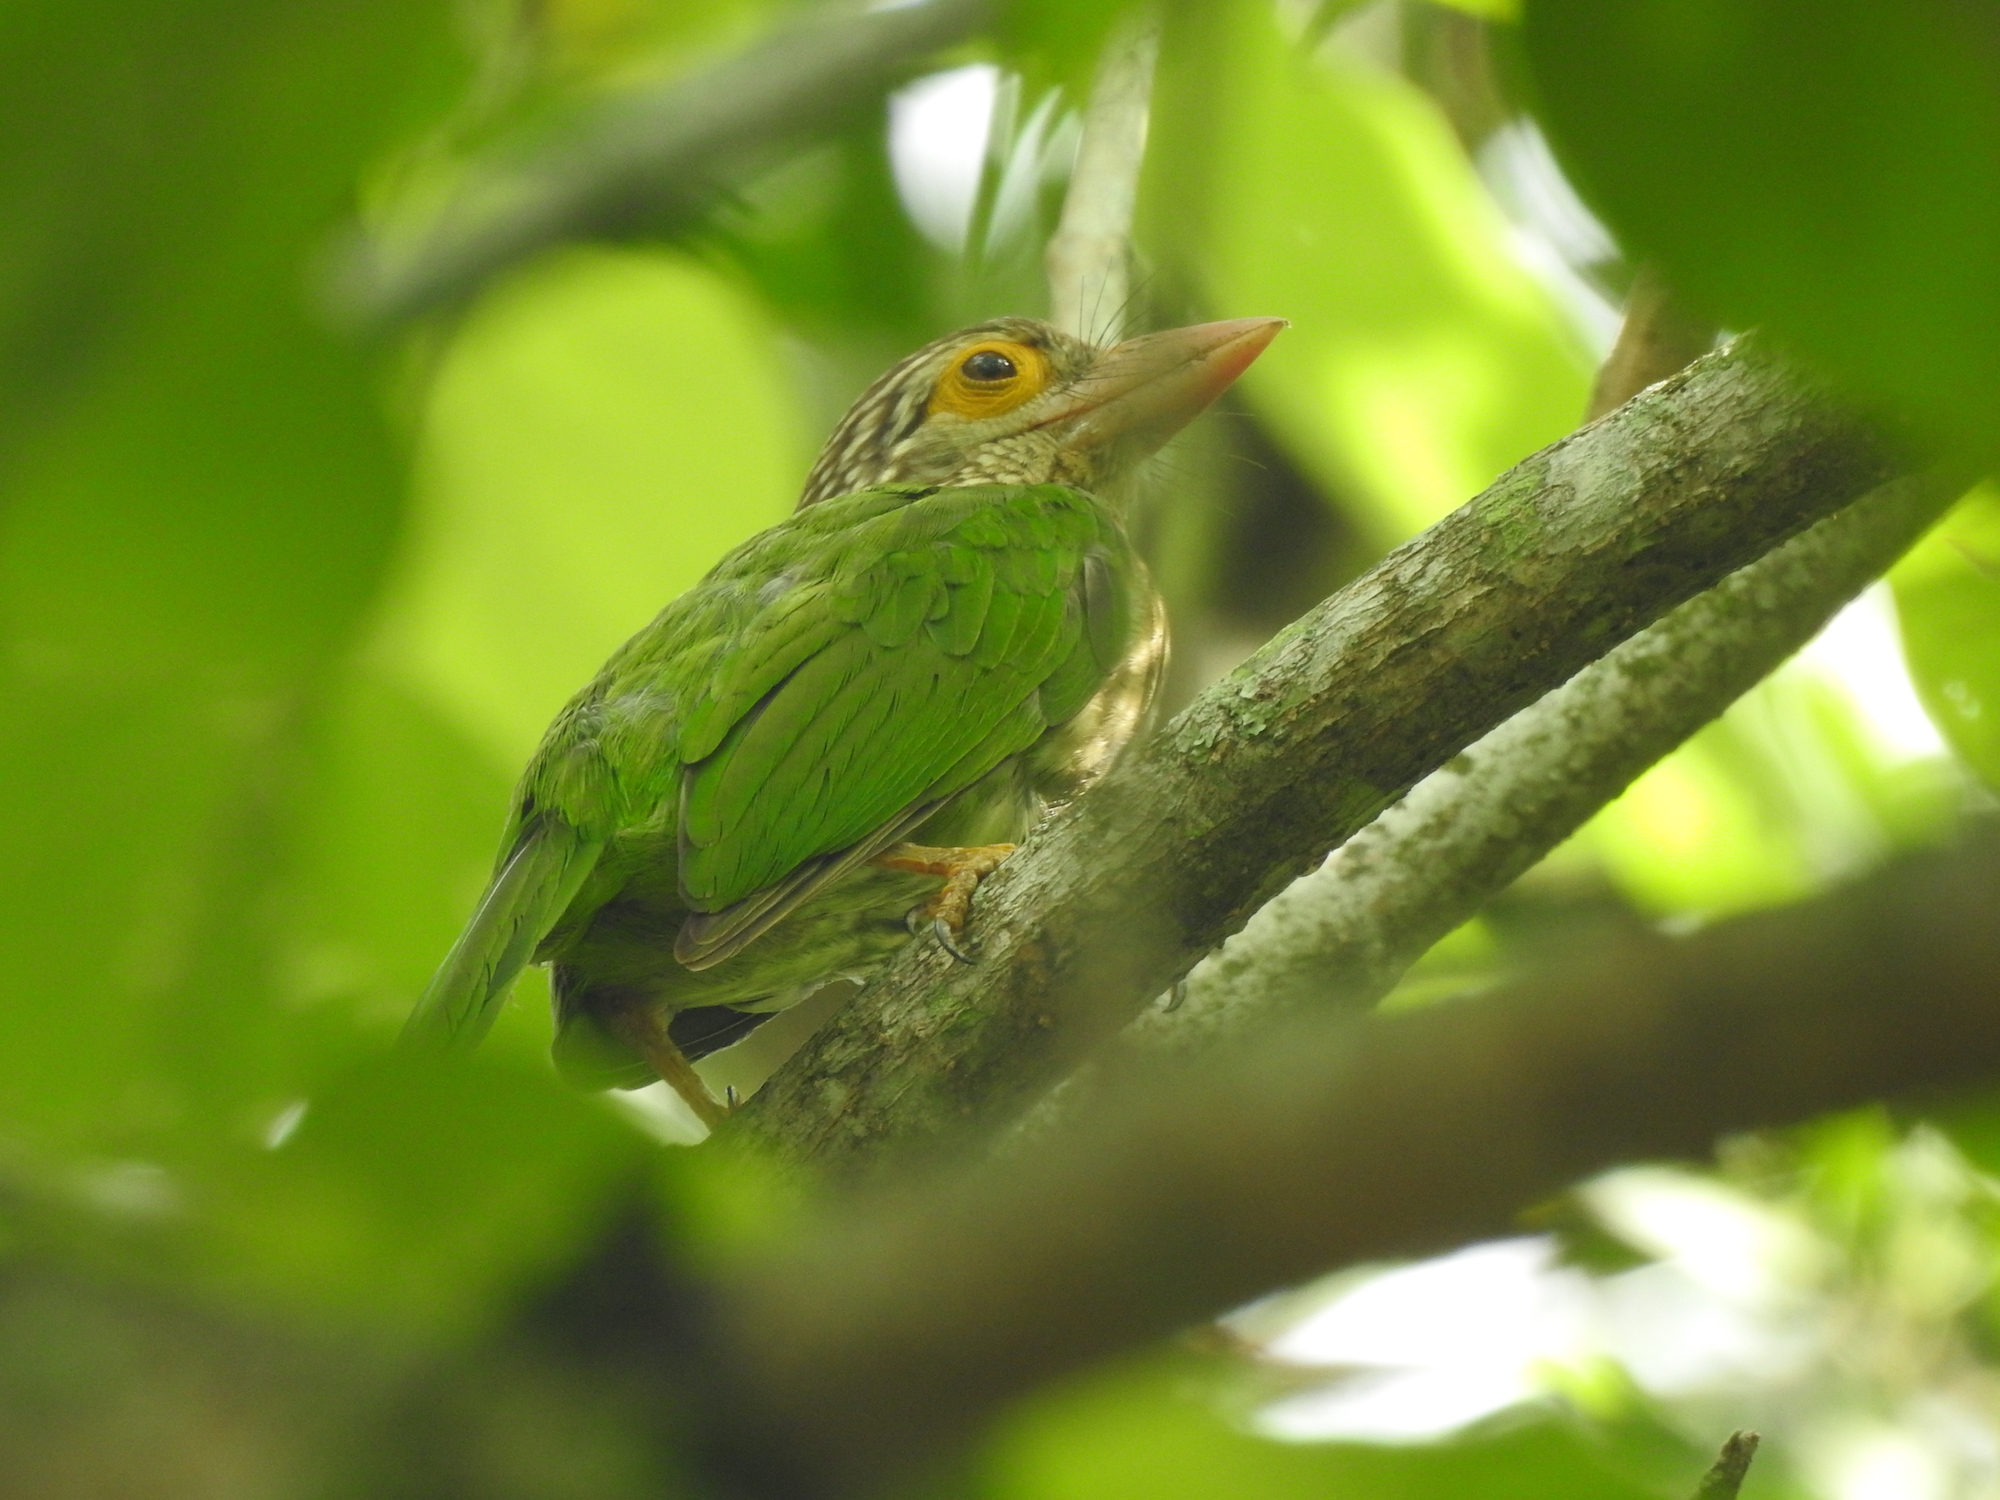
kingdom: Animalia
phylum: Chordata
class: Aves
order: Piciformes
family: Megalaimidae
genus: Psilopogon
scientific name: Psilopogon lineatus
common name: Lineated barbet
